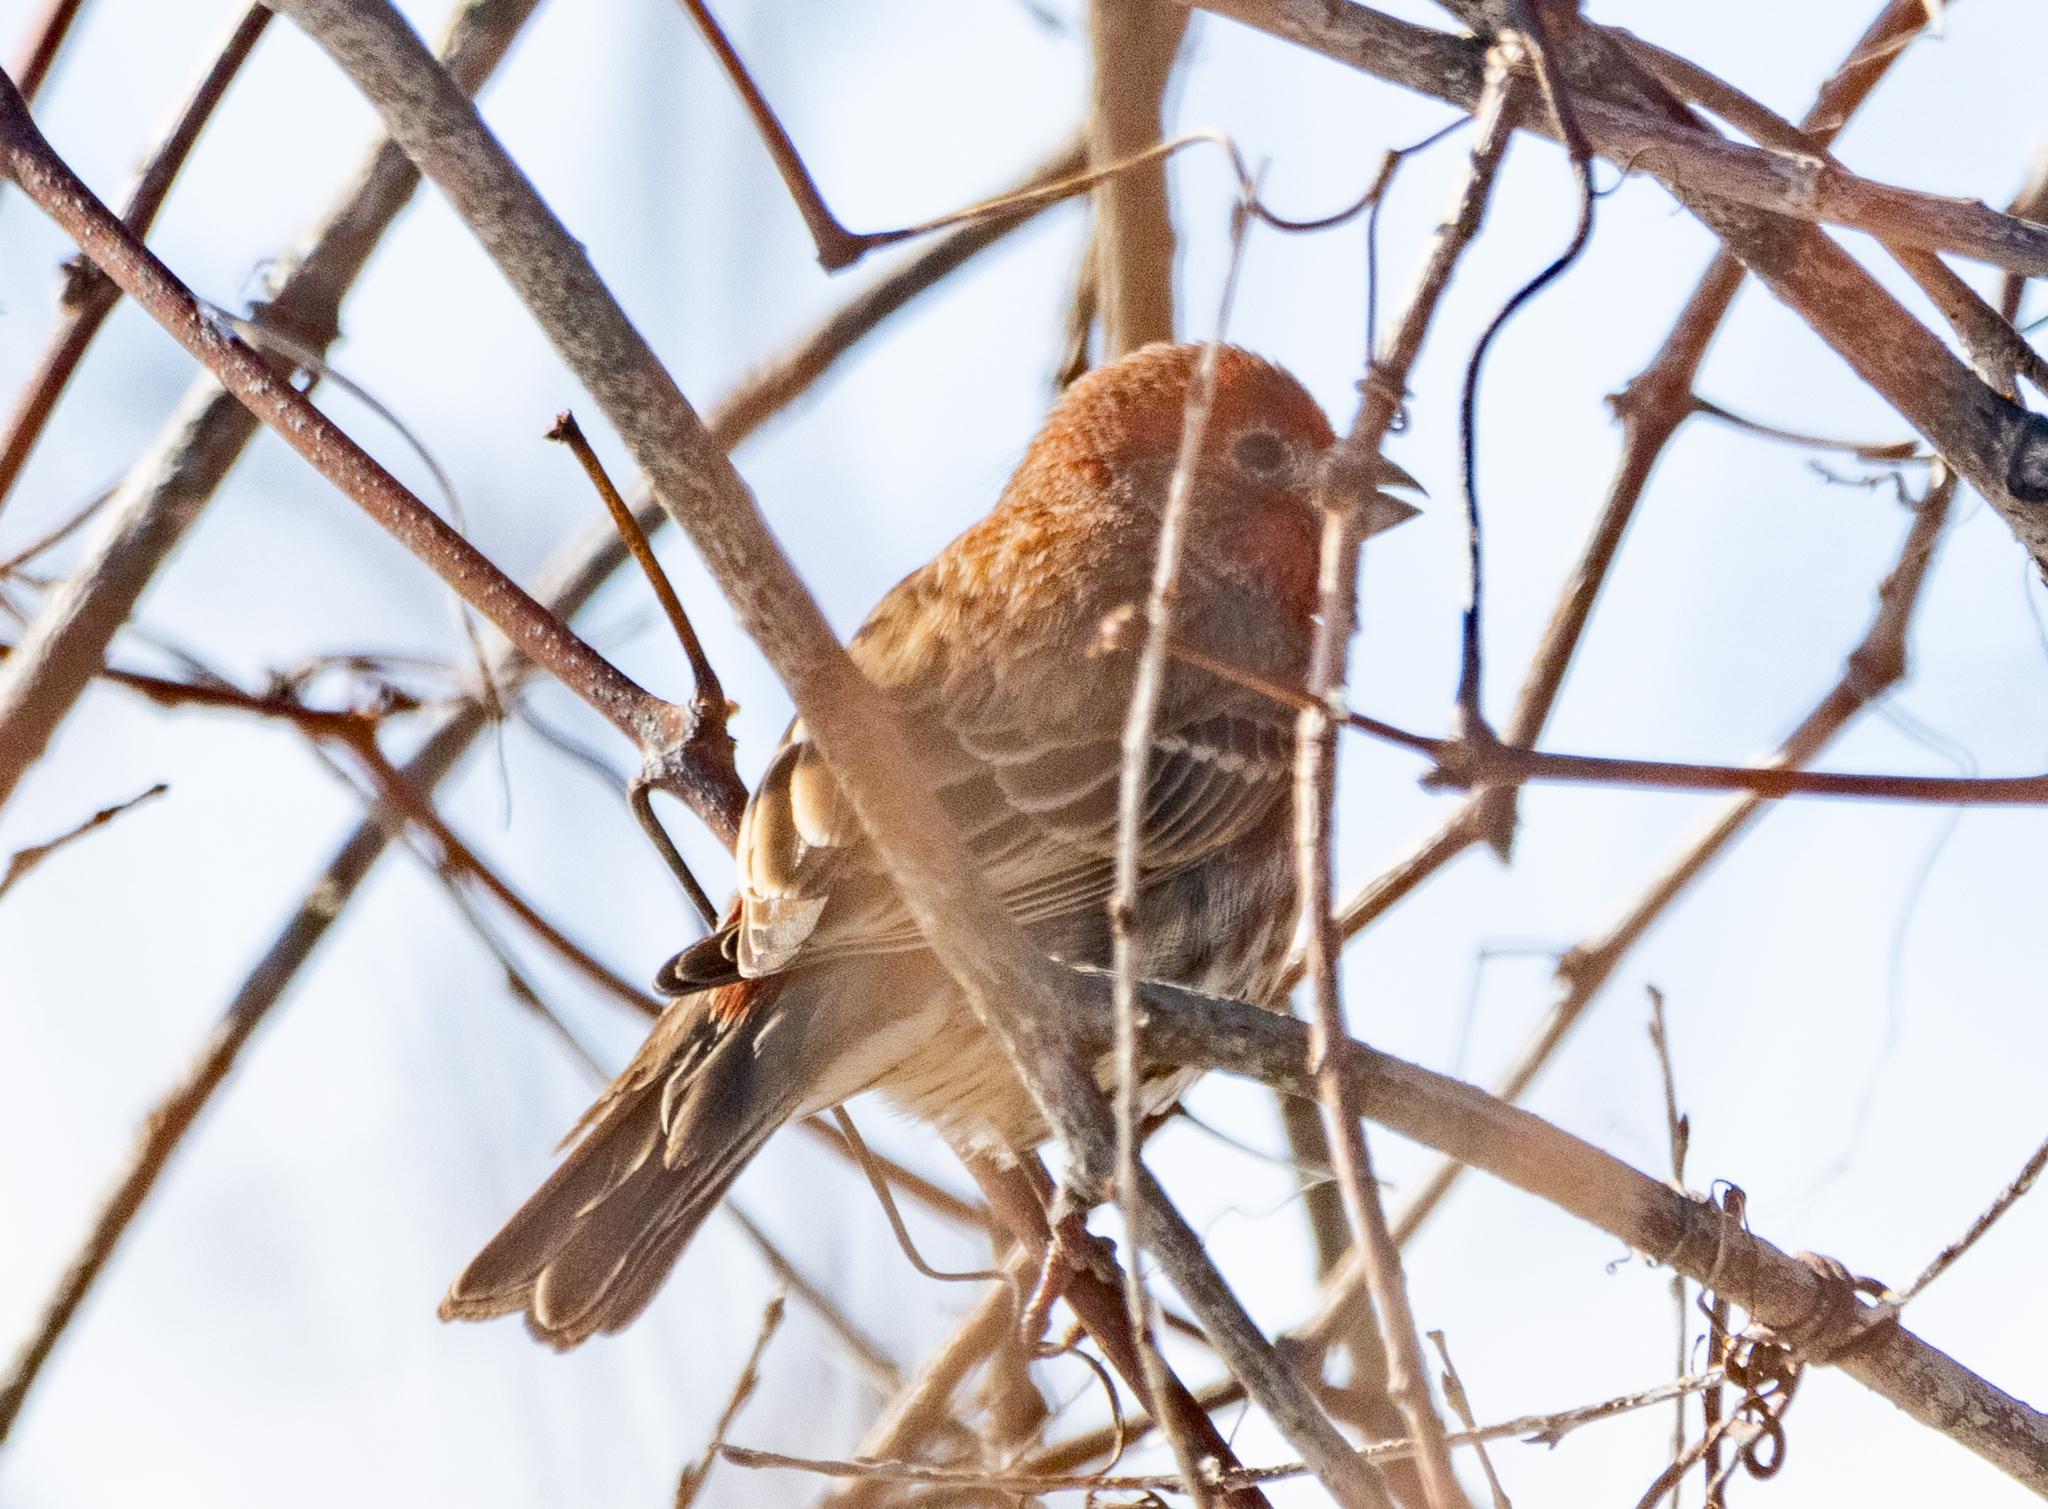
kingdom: Animalia
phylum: Chordata
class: Aves
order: Passeriformes
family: Fringillidae
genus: Haemorhous
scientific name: Haemorhous mexicanus
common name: House finch
